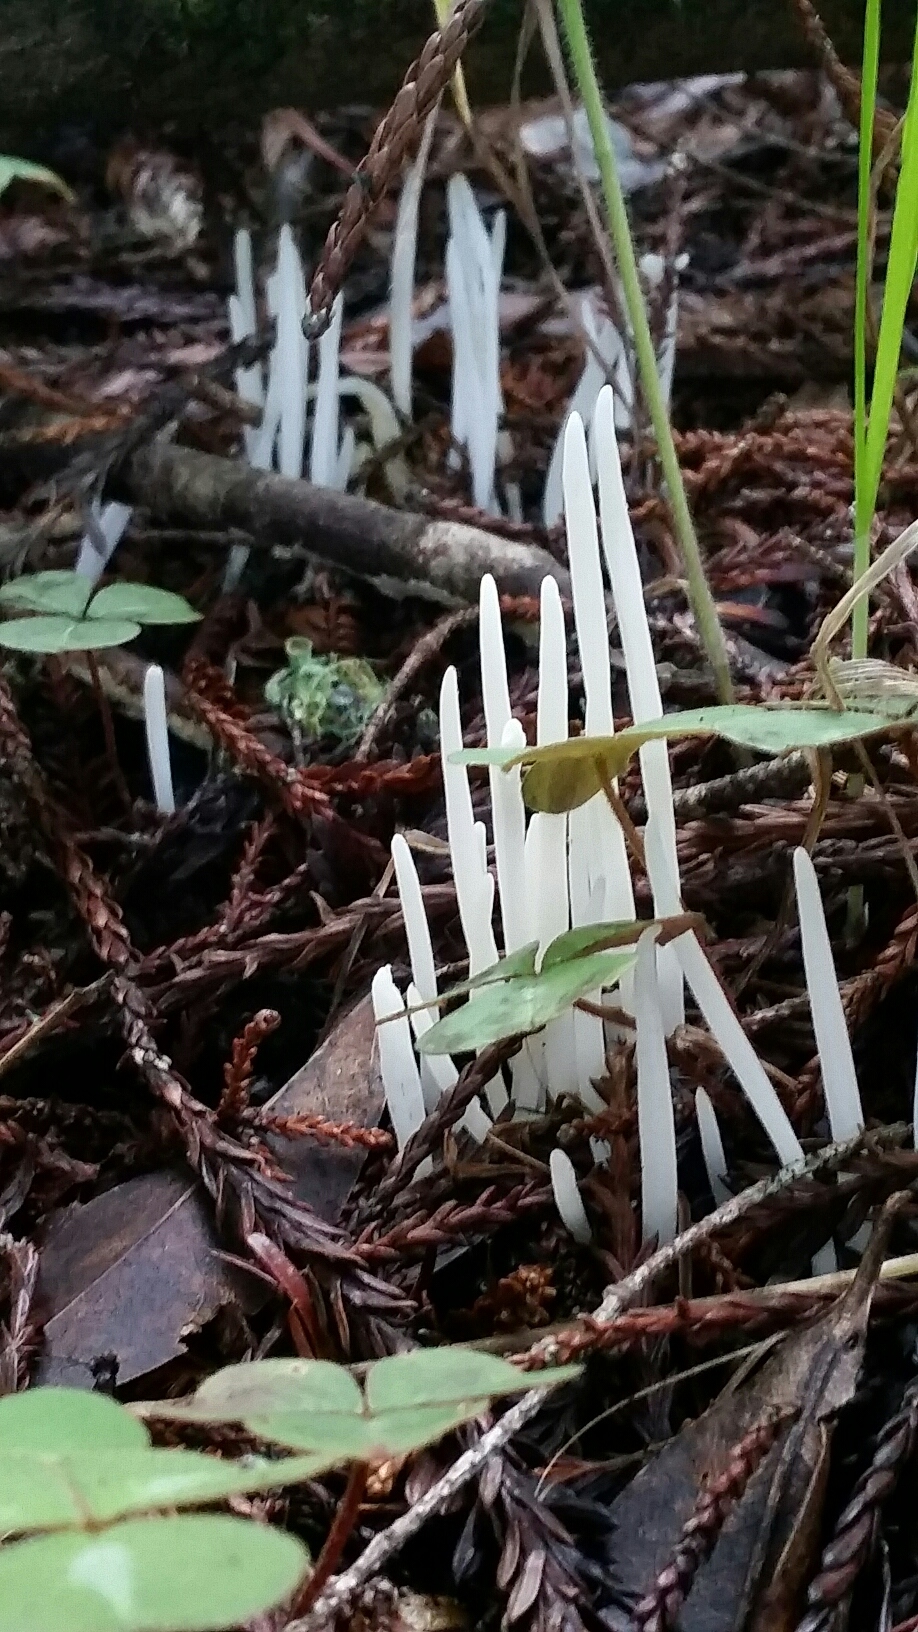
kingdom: Fungi
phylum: Basidiomycota
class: Agaricomycetes
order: Agaricales
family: Clavariaceae
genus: Clavaria
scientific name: Clavaria fragilis
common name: White spindles
